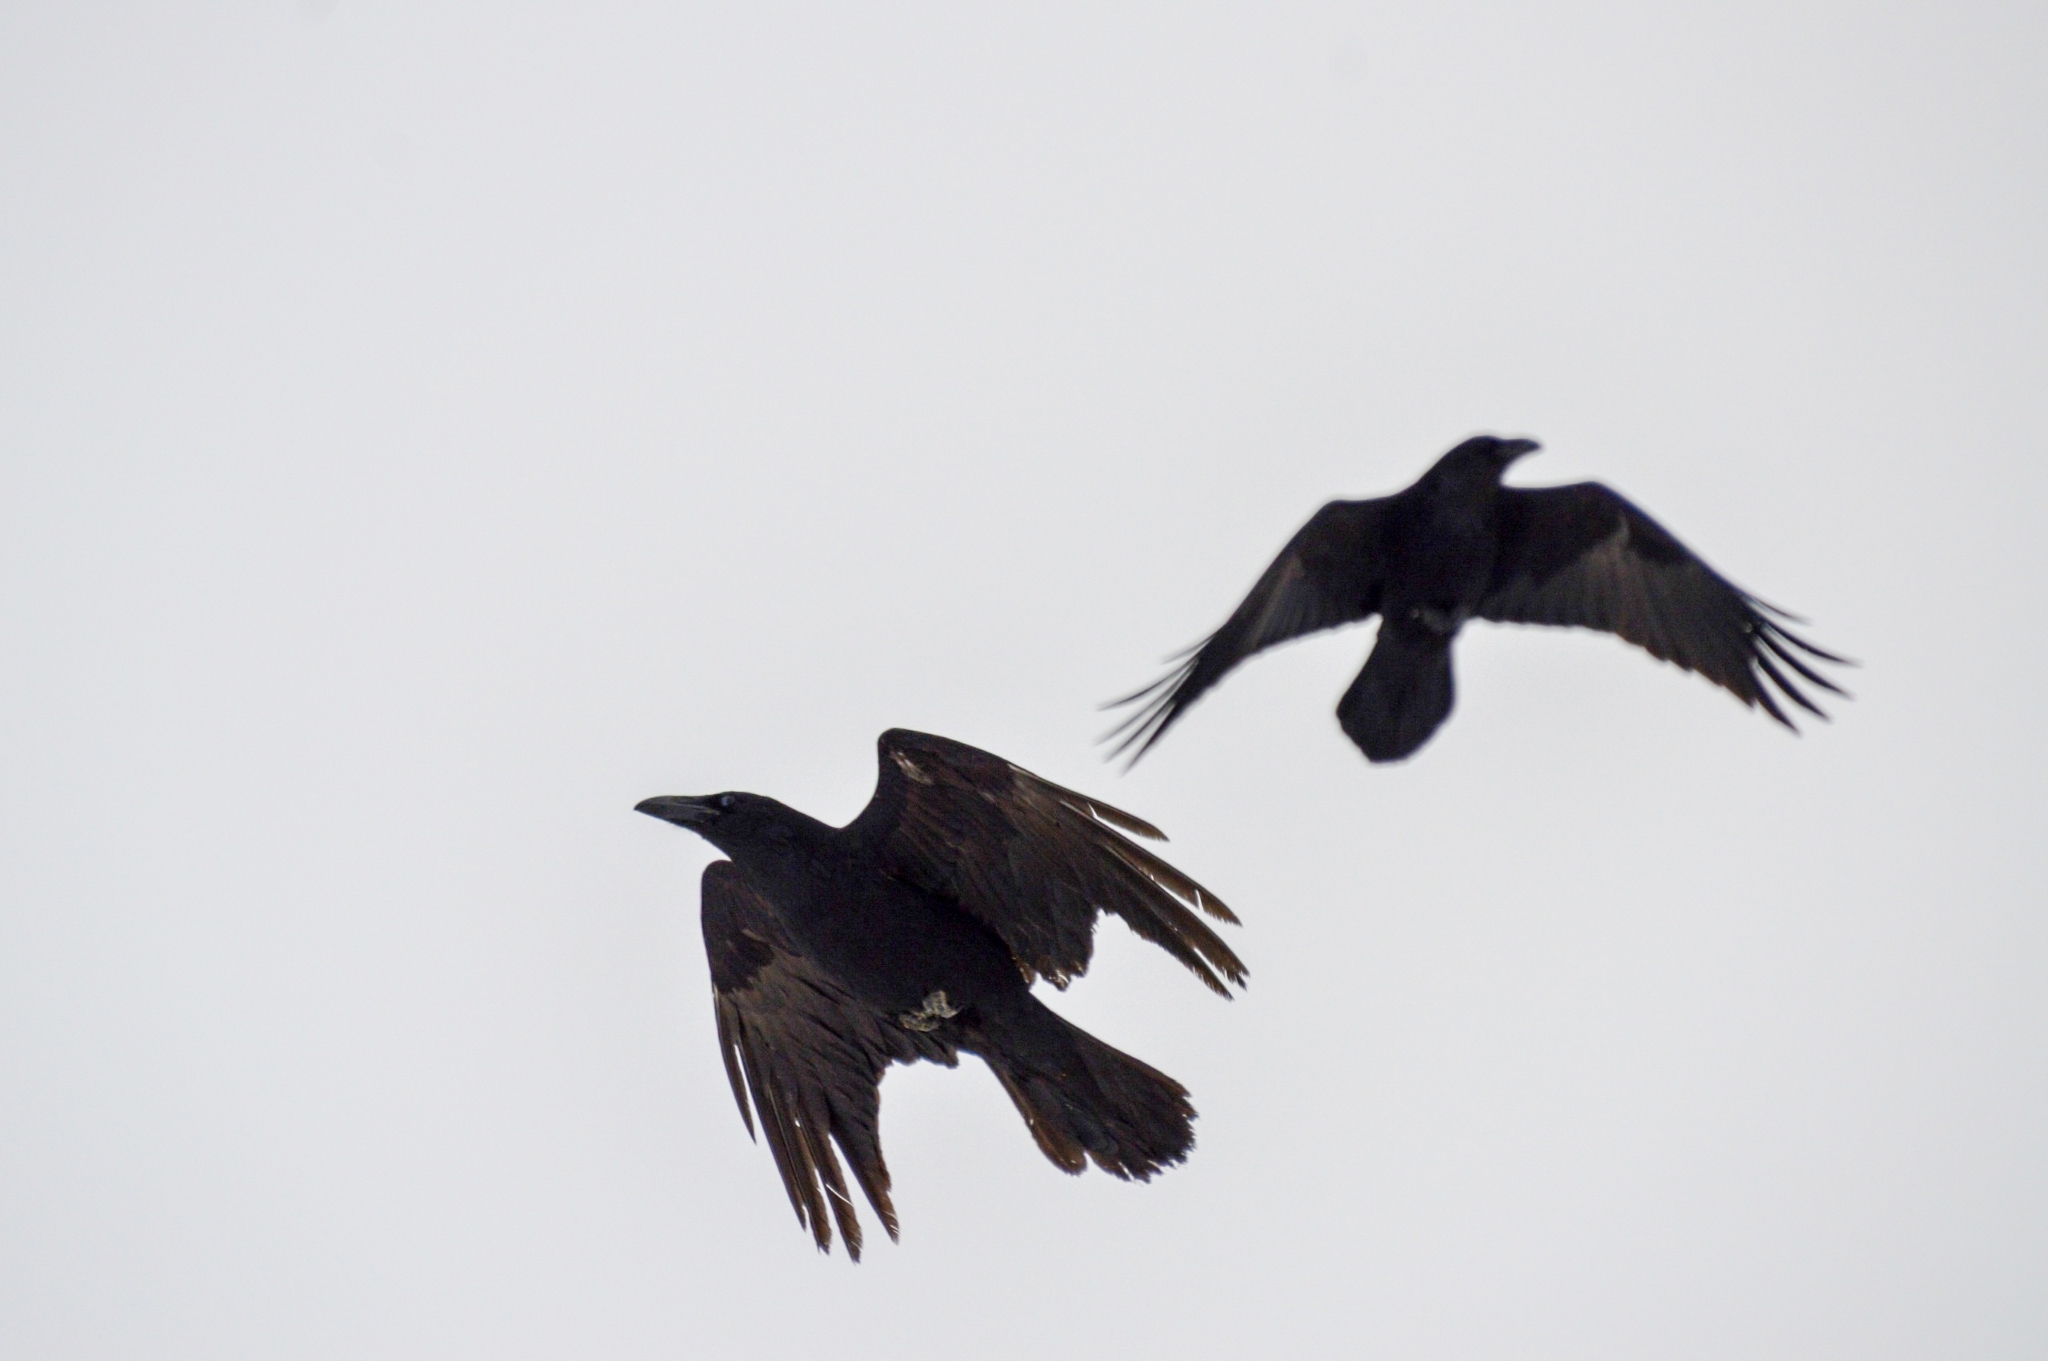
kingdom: Animalia
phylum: Chordata
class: Aves
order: Passeriformes
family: Corvidae
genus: Corvus
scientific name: Corvus corax
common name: Common raven
